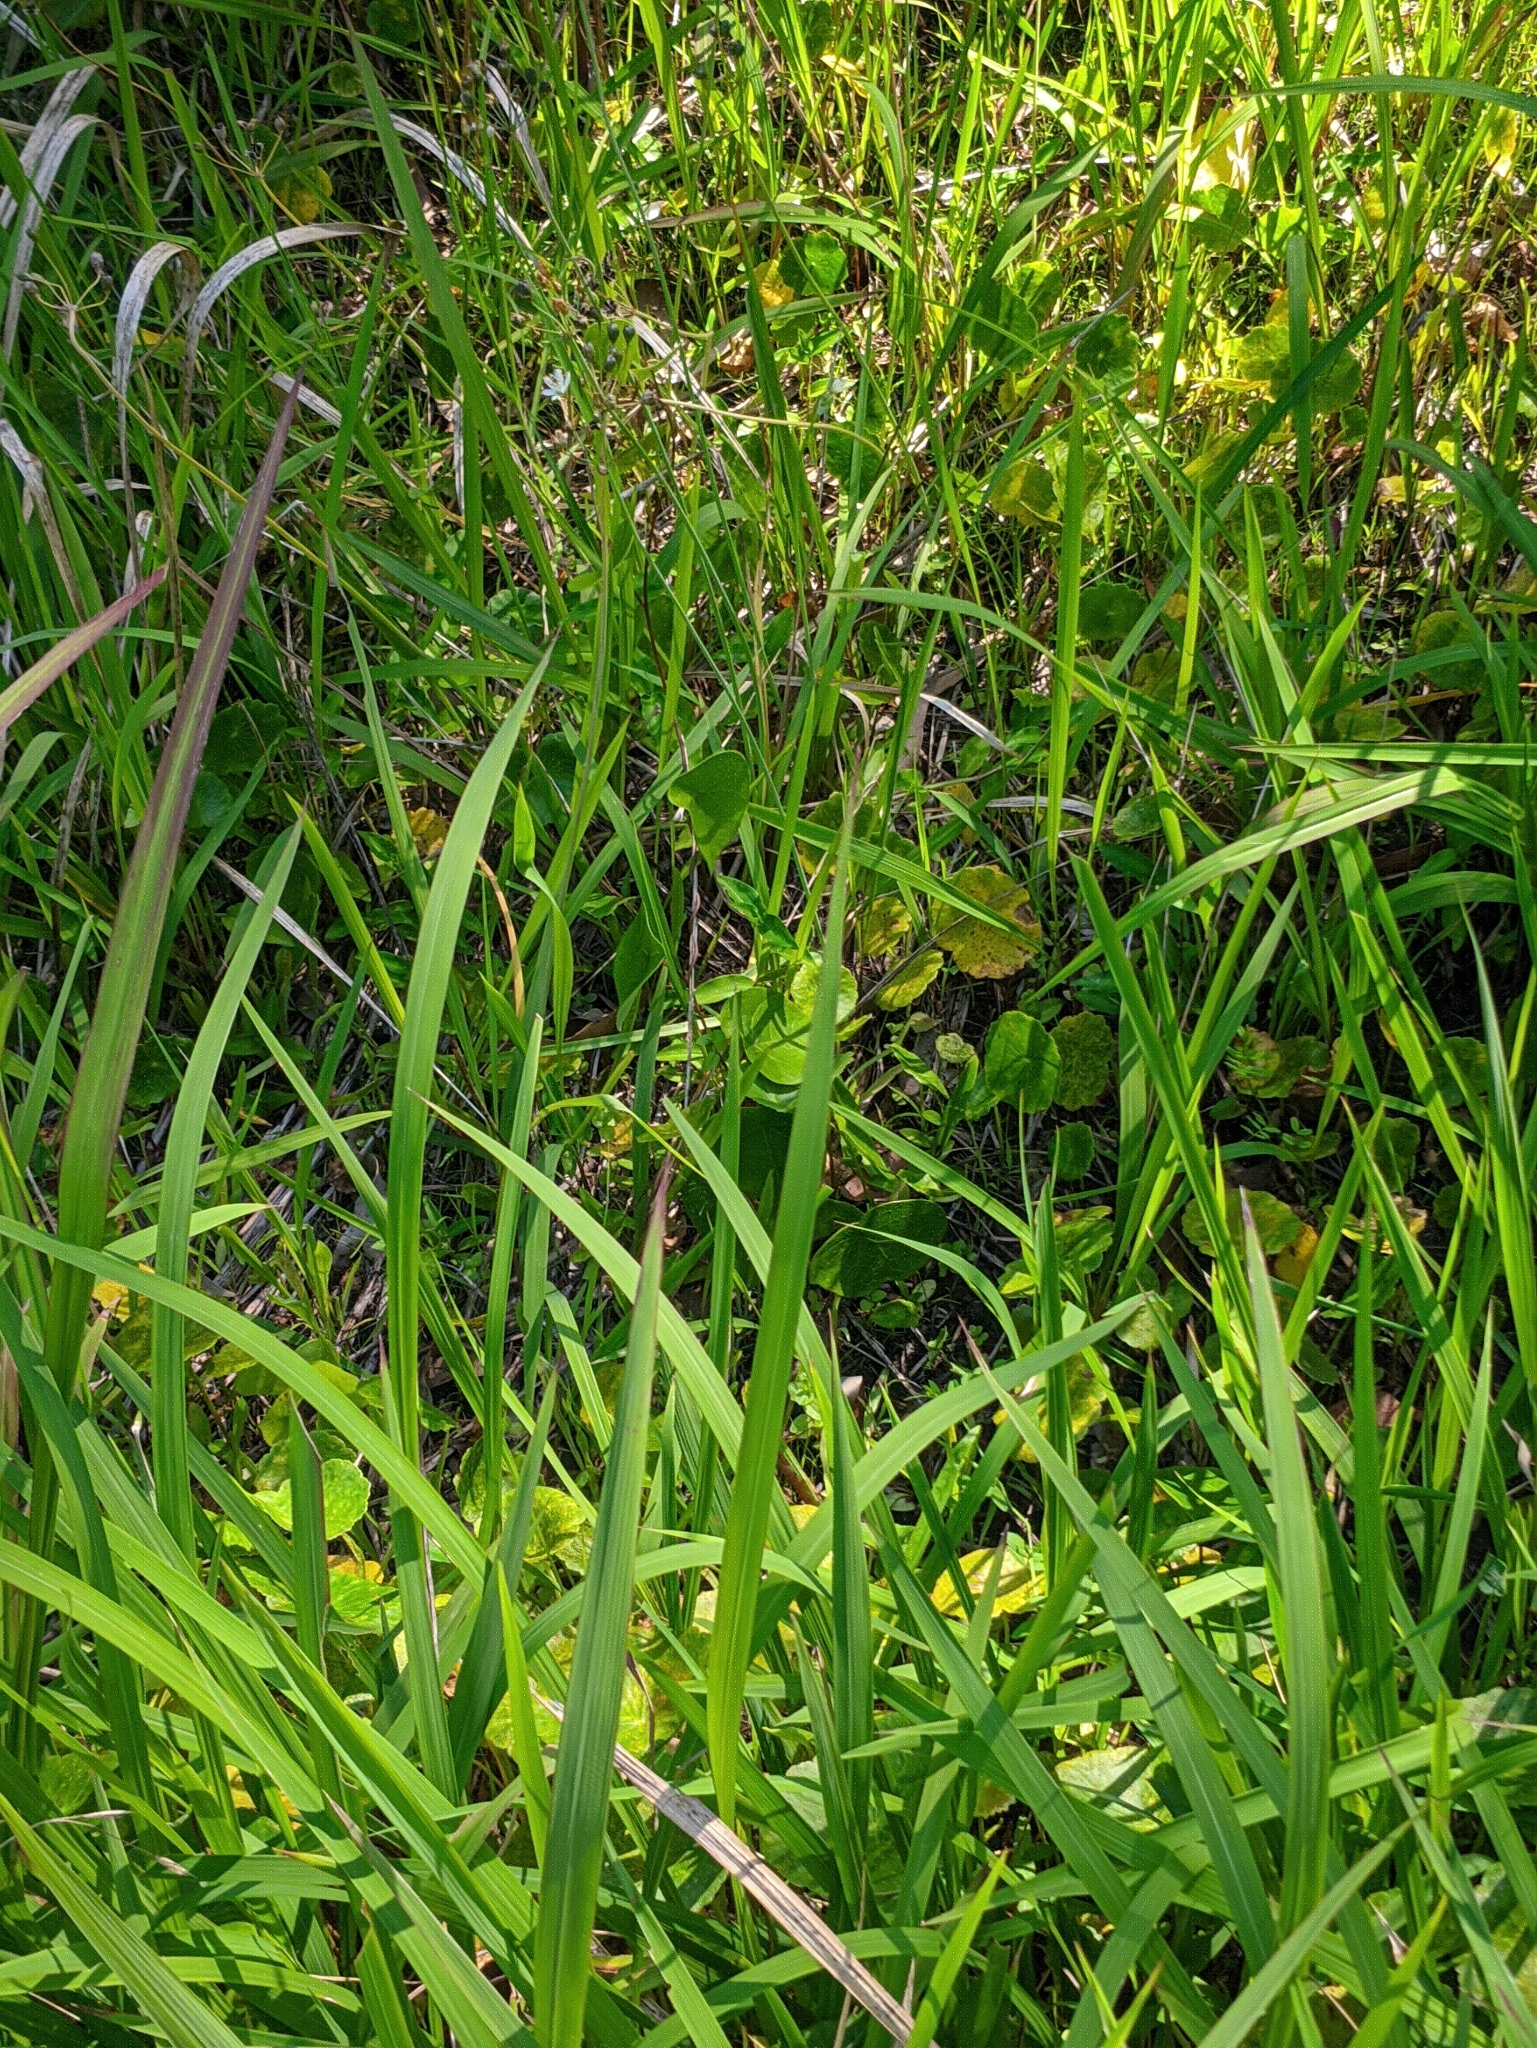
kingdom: Plantae
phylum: Tracheophyta
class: Liliopsida
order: Asparagales
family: Amaryllidaceae
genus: Nothoscordum
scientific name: Nothoscordum gracile
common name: Slender false garlic
